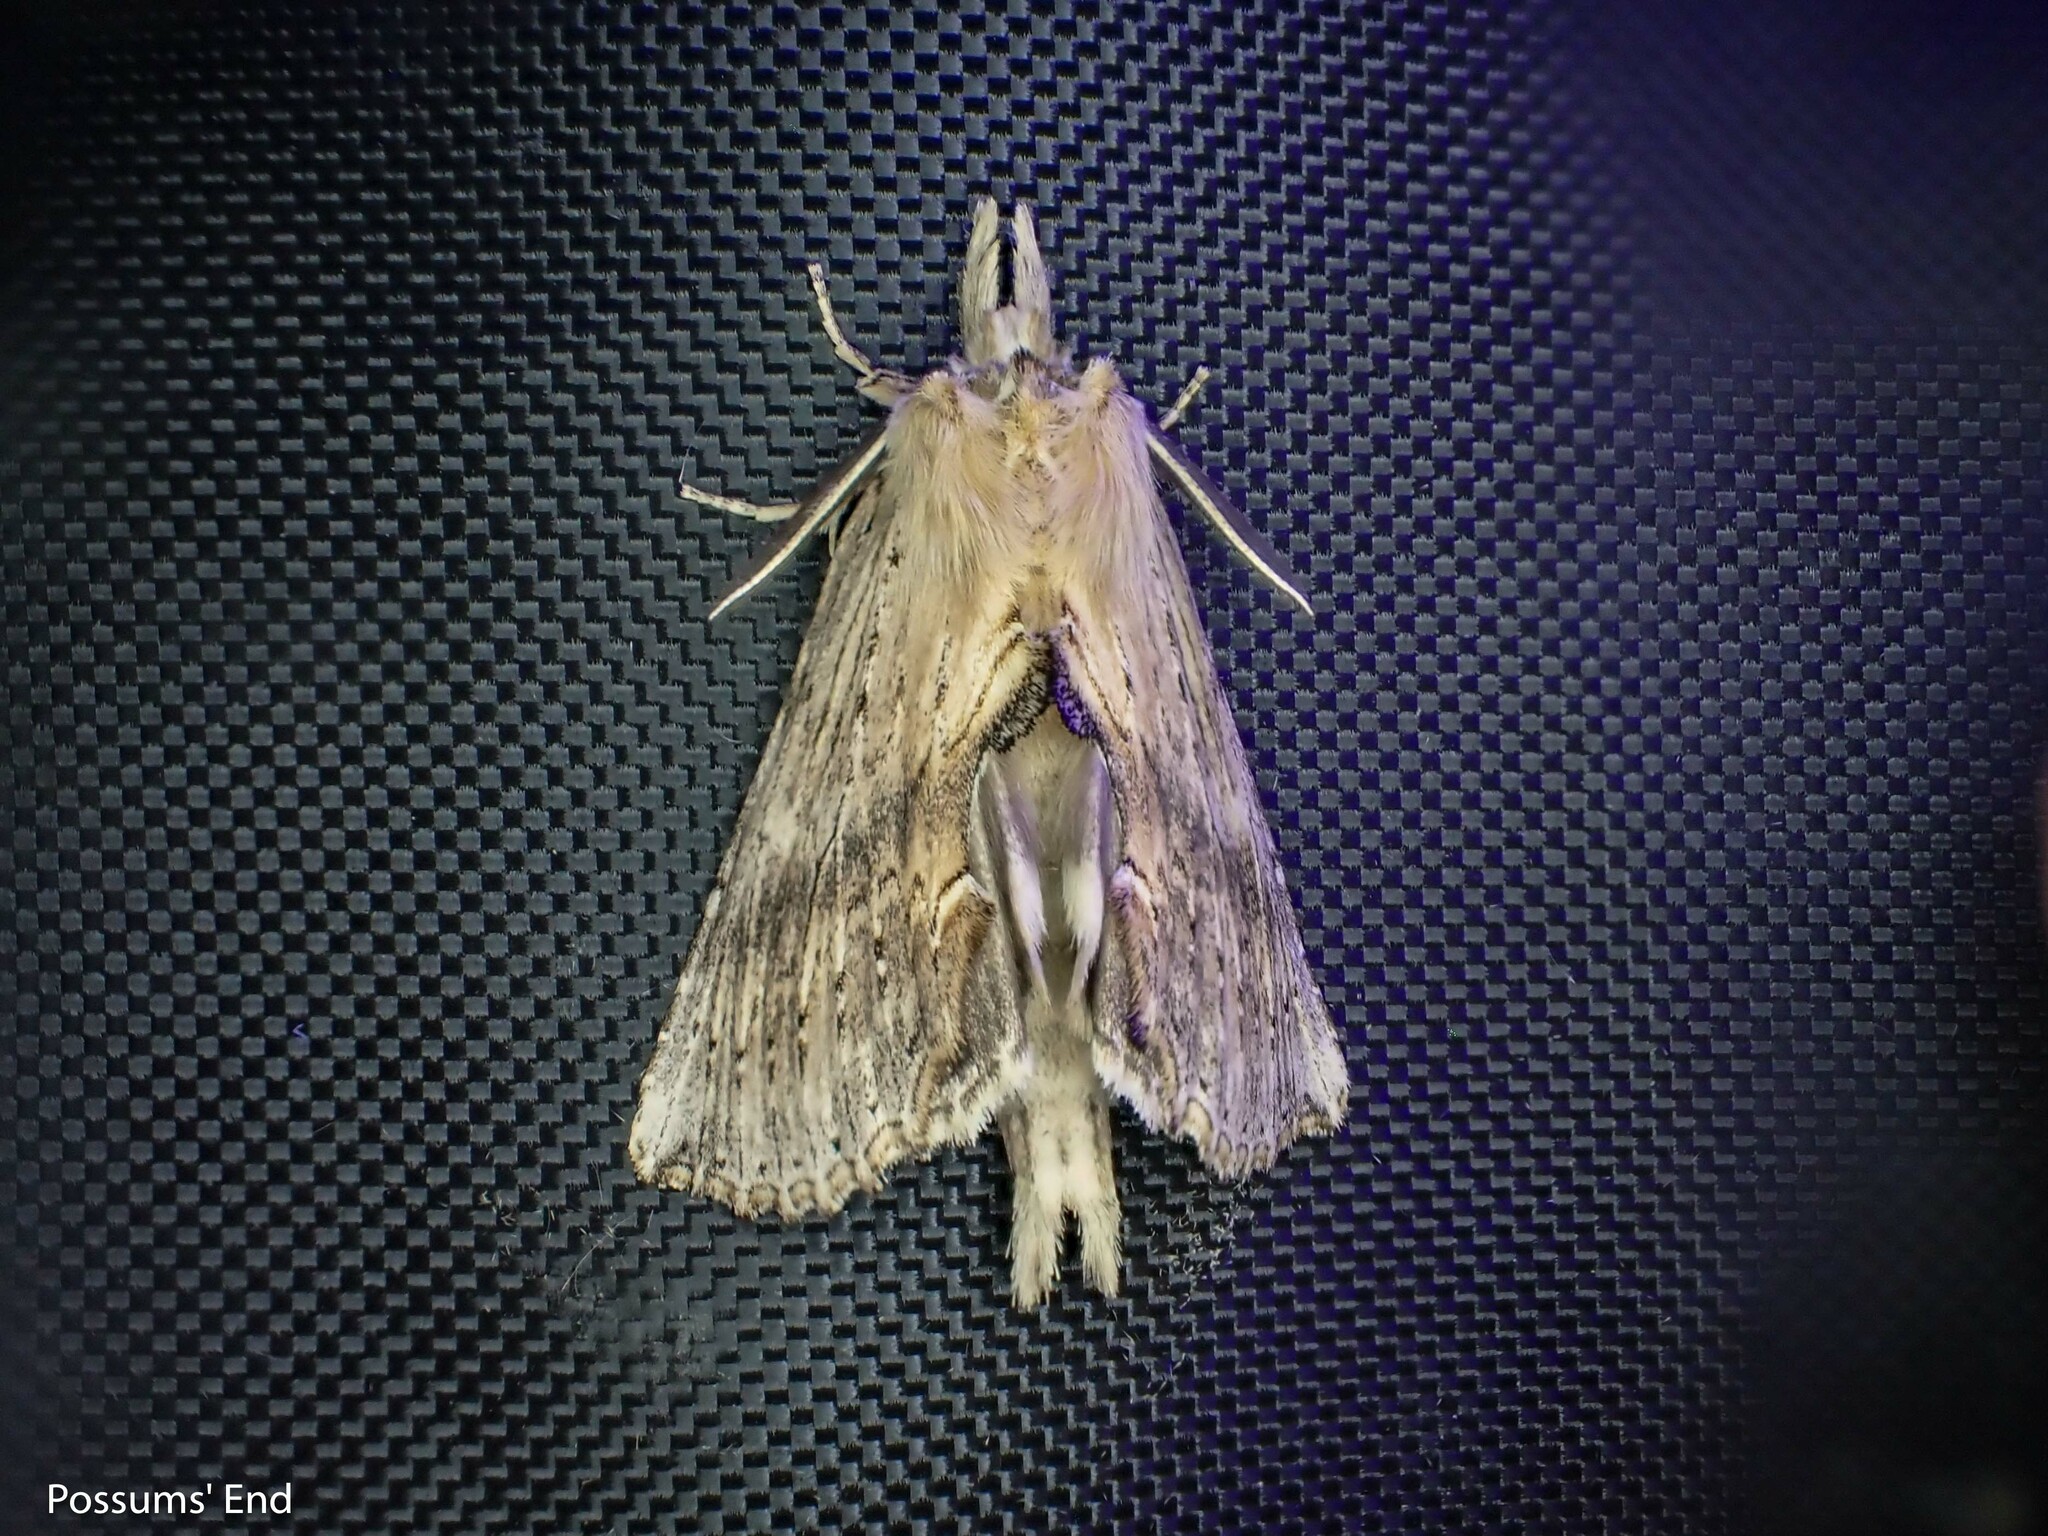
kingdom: Animalia
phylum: Arthropoda
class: Insecta
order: Lepidoptera
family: Notodontidae
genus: Pterostoma
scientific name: Pterostoma palpina
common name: Pale prominent
